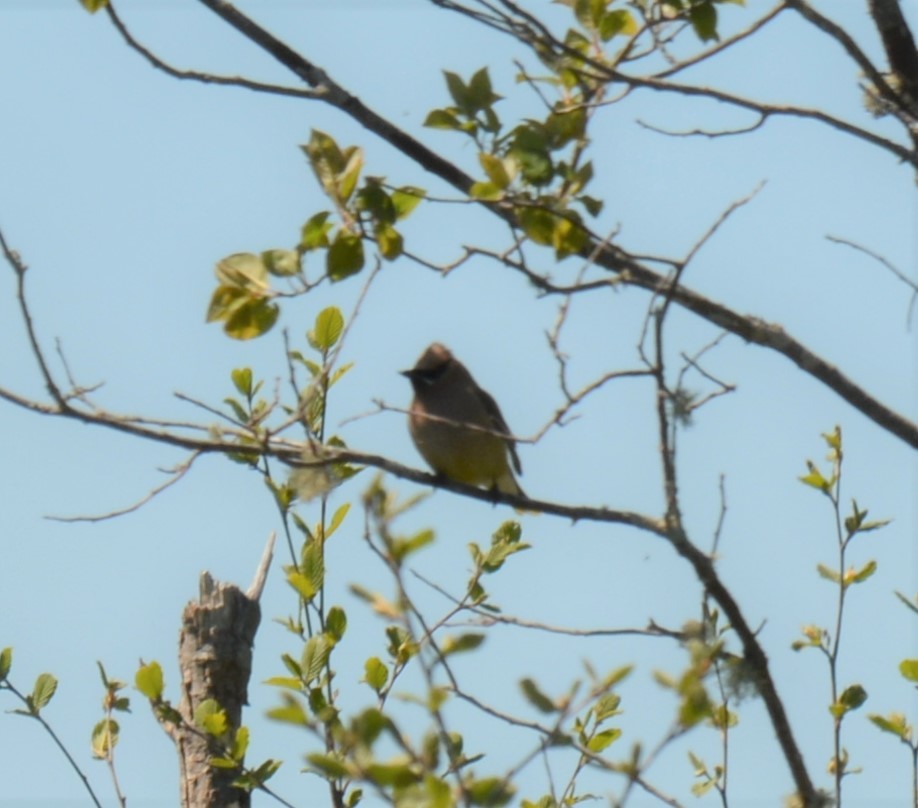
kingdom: Animalia
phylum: Chordata
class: Aves
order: Passeriformes
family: Bombycillidae
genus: Bombycilla
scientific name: Bombycilla cedrorum
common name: Cedar waxwing
